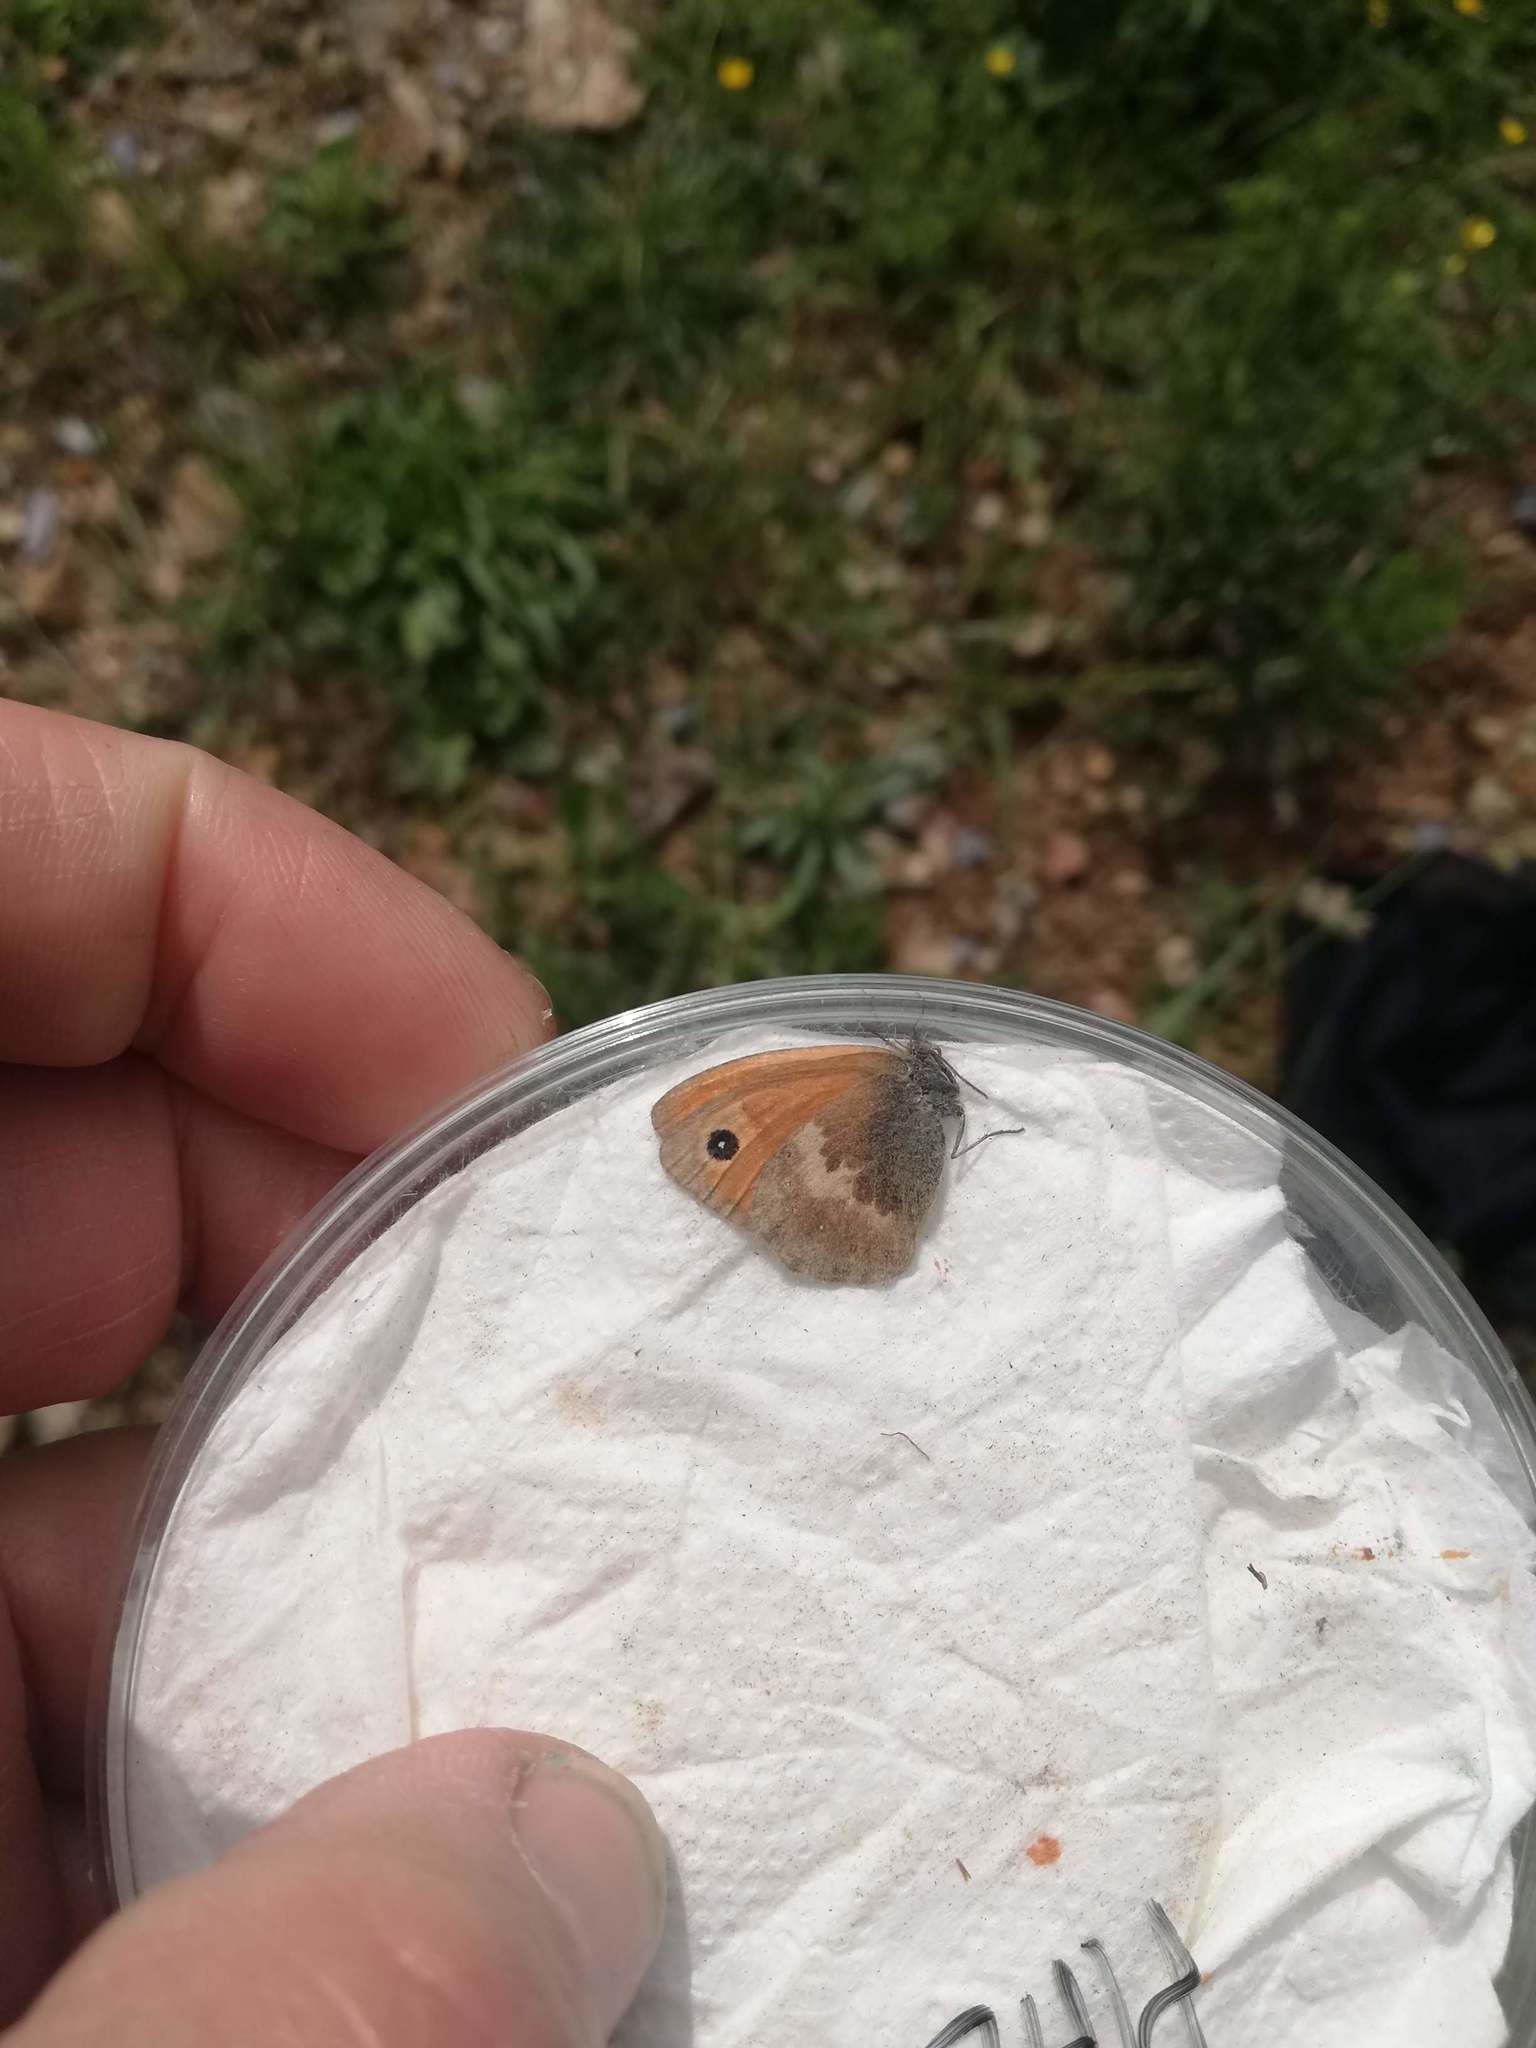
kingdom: Animalia
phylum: Arthropoda
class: Insecta
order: Lepidoptera
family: Nymphalidae
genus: Coenonympha
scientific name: Coenonympha pamphilus
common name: Small heath
